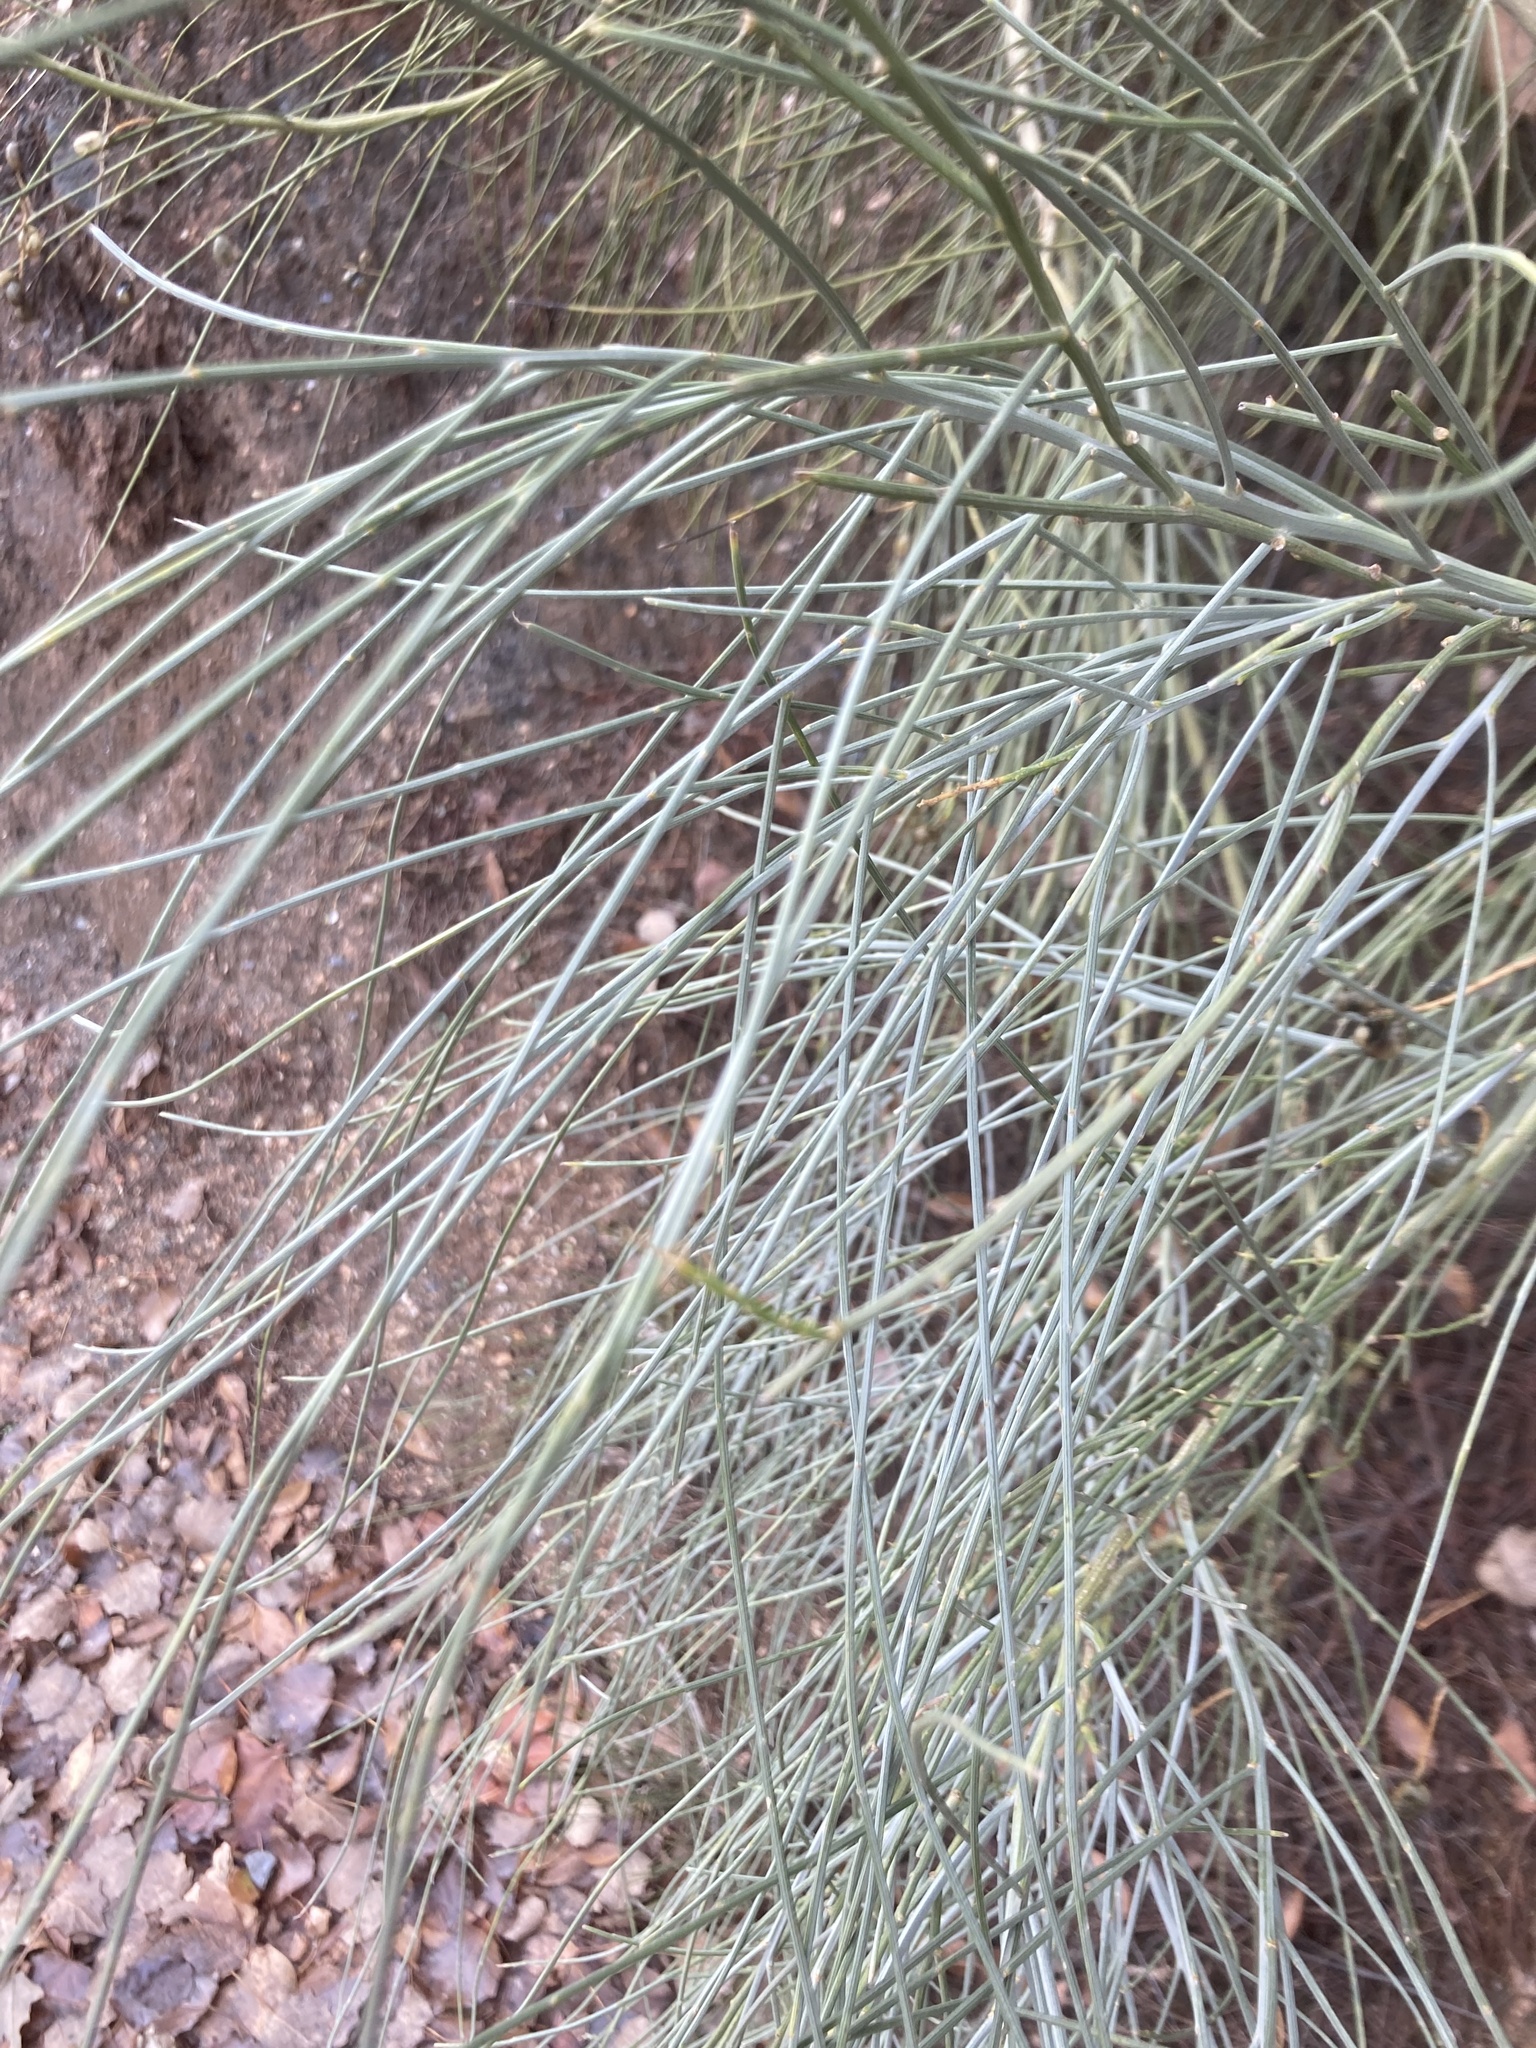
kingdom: Plantae
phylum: Tracheophyta
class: Magnoliopsida
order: Fabales
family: Fabaceae
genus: Retama
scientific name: Retama sphaerocarpa
